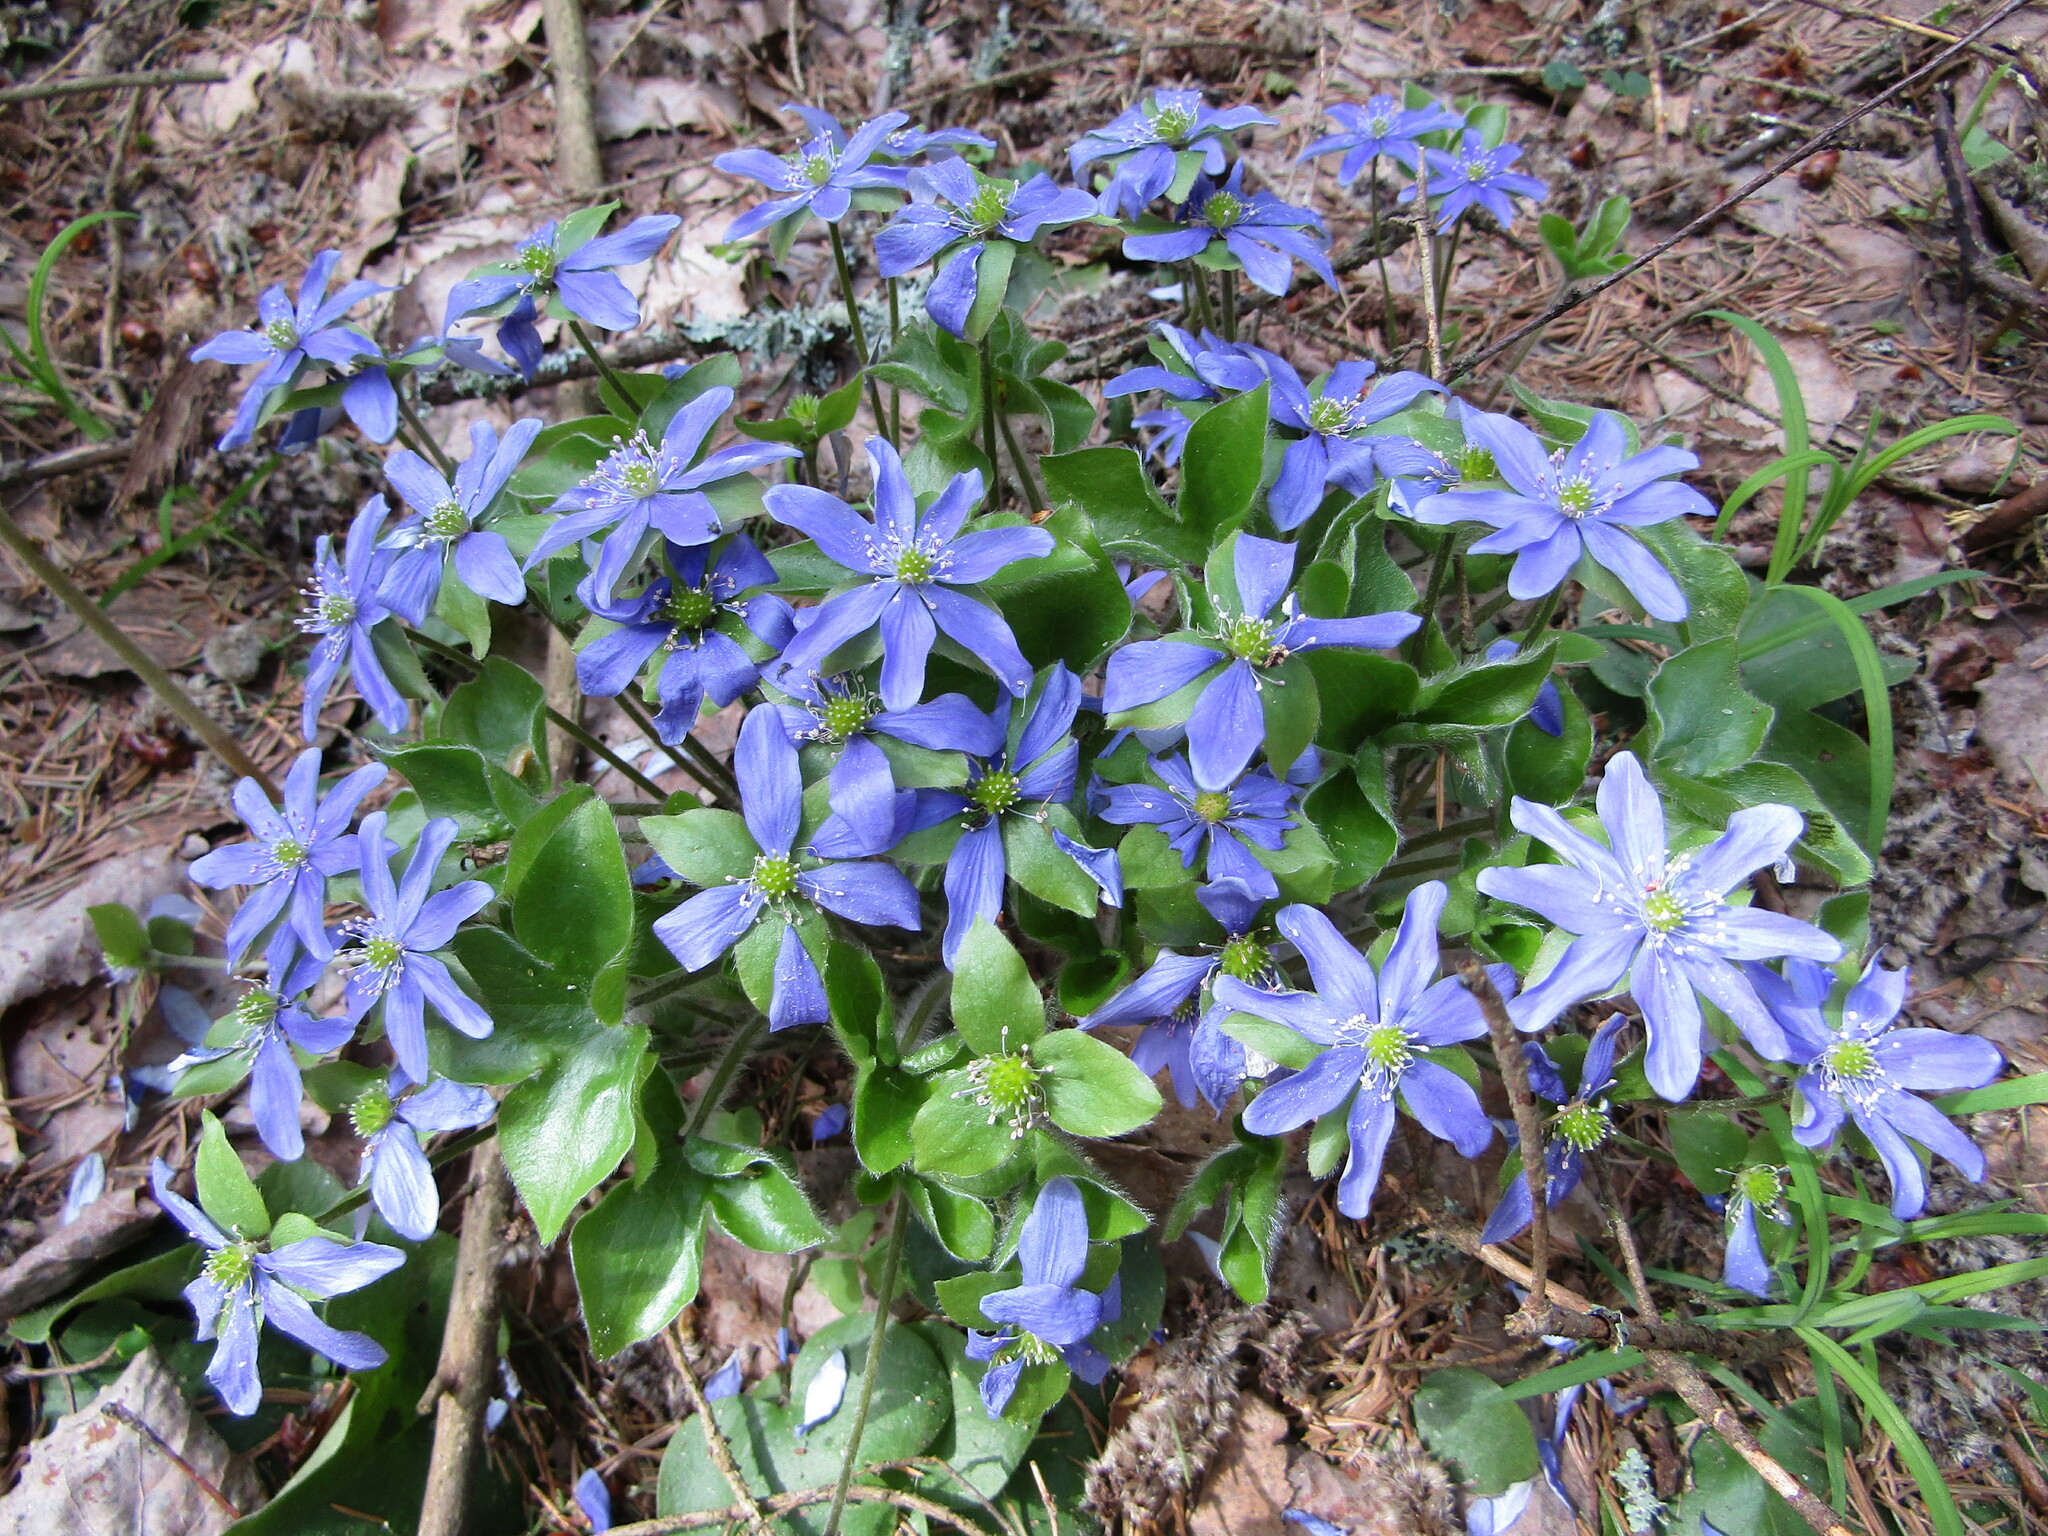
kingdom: Plantae
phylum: Tracheophyta
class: Magnoliopsida
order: Ranunculales
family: Ranunculaceae
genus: Hepatica
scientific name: Hepatica nobilis
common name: Liverleaf
